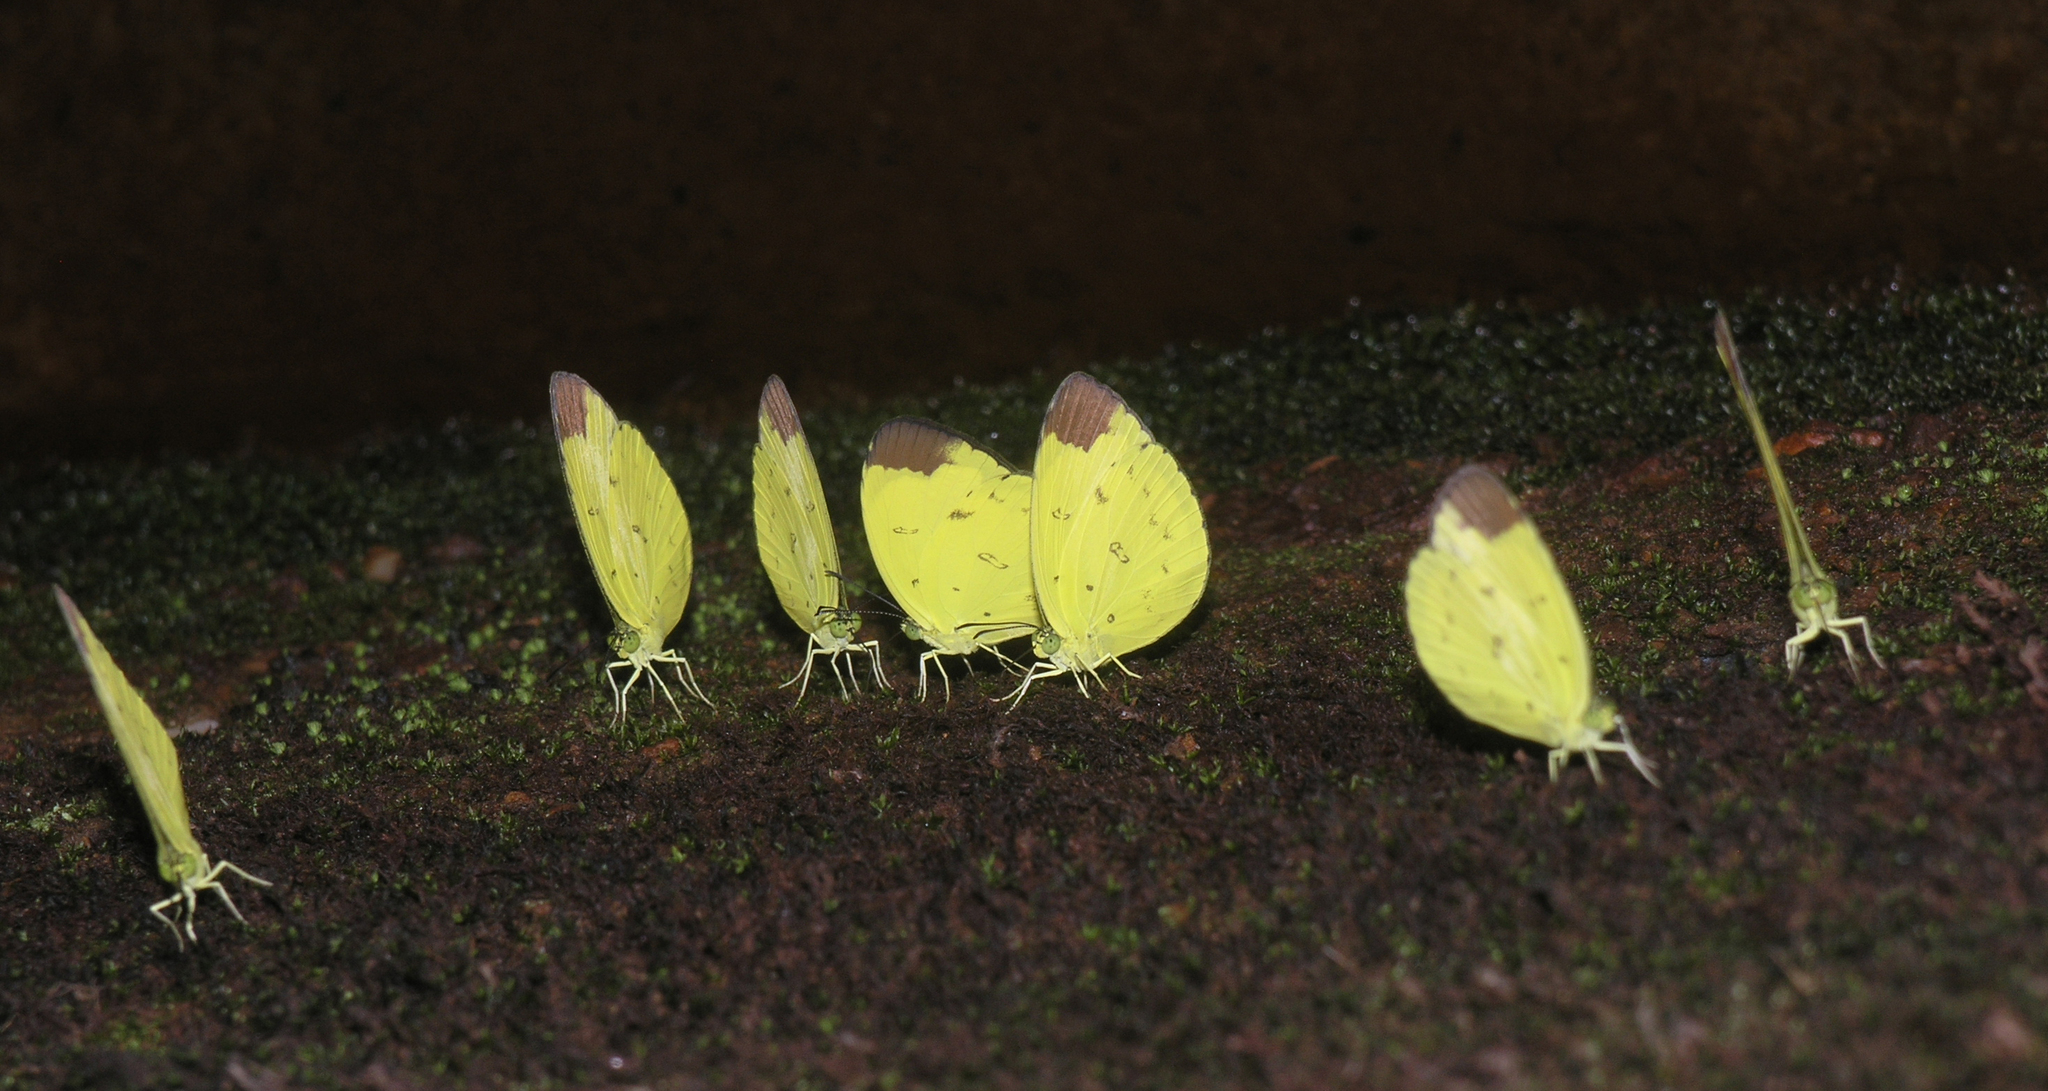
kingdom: Animalia
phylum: Arthropoda
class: Insecta
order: Lepidoptera
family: Pieridae
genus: Eurema
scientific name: Eurema sari
